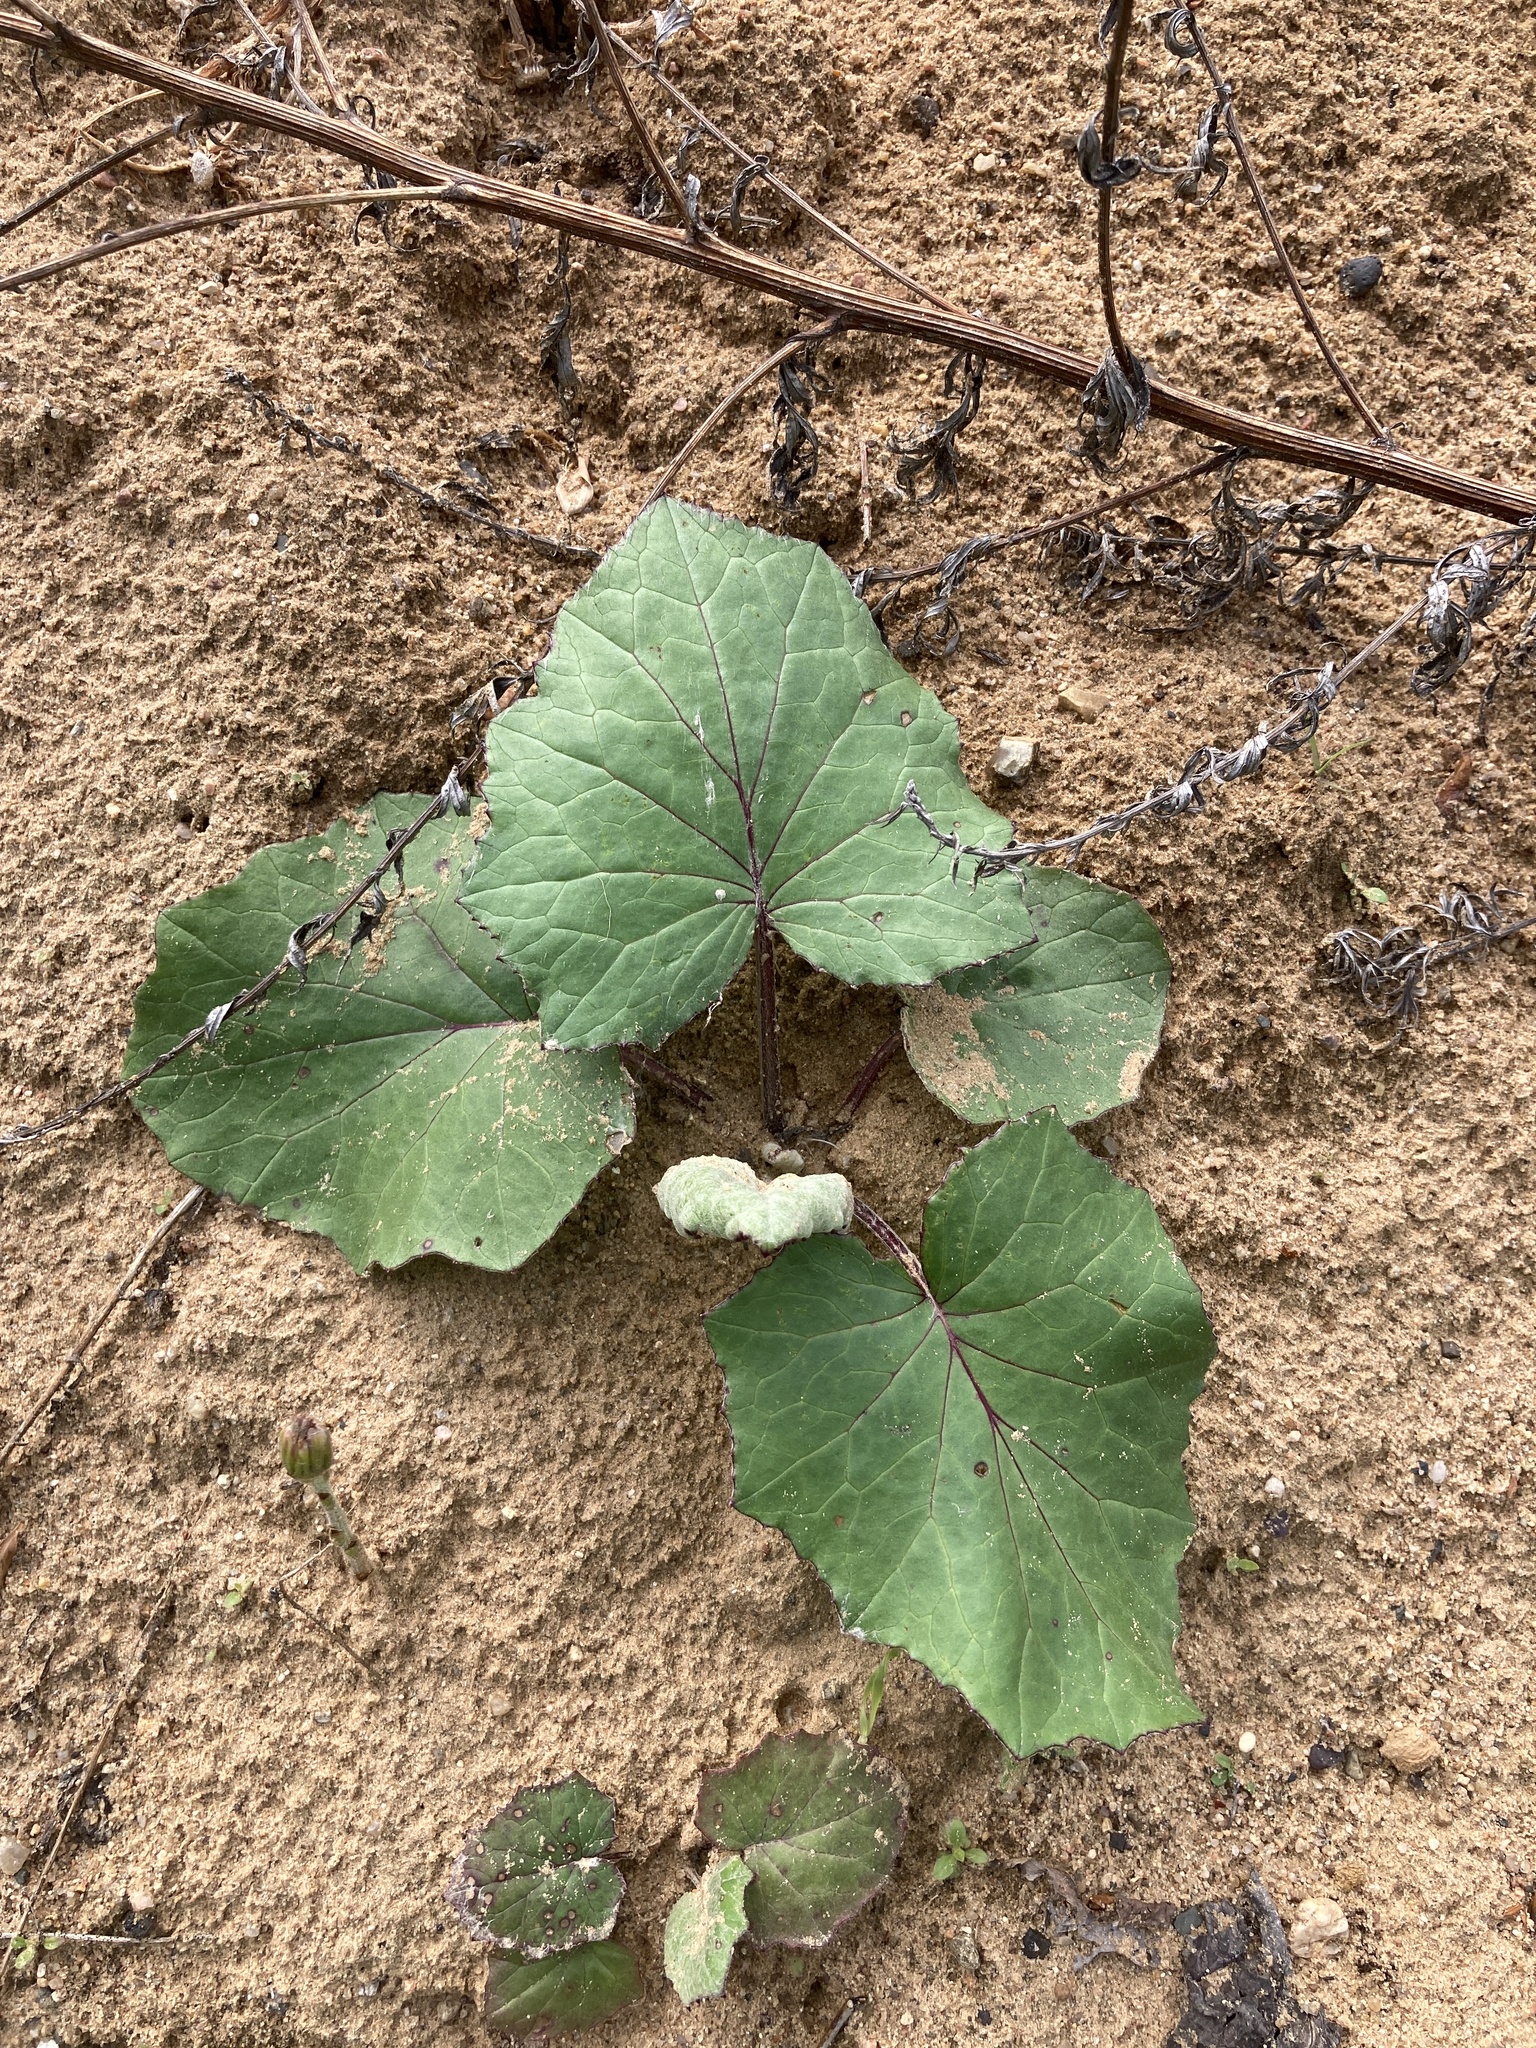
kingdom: Plantae
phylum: Tracheophyta
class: Magnoliopsida
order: Asterales
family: Asteraceae
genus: Tussilago
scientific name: Tussilago farfara
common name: Coltsfoot
